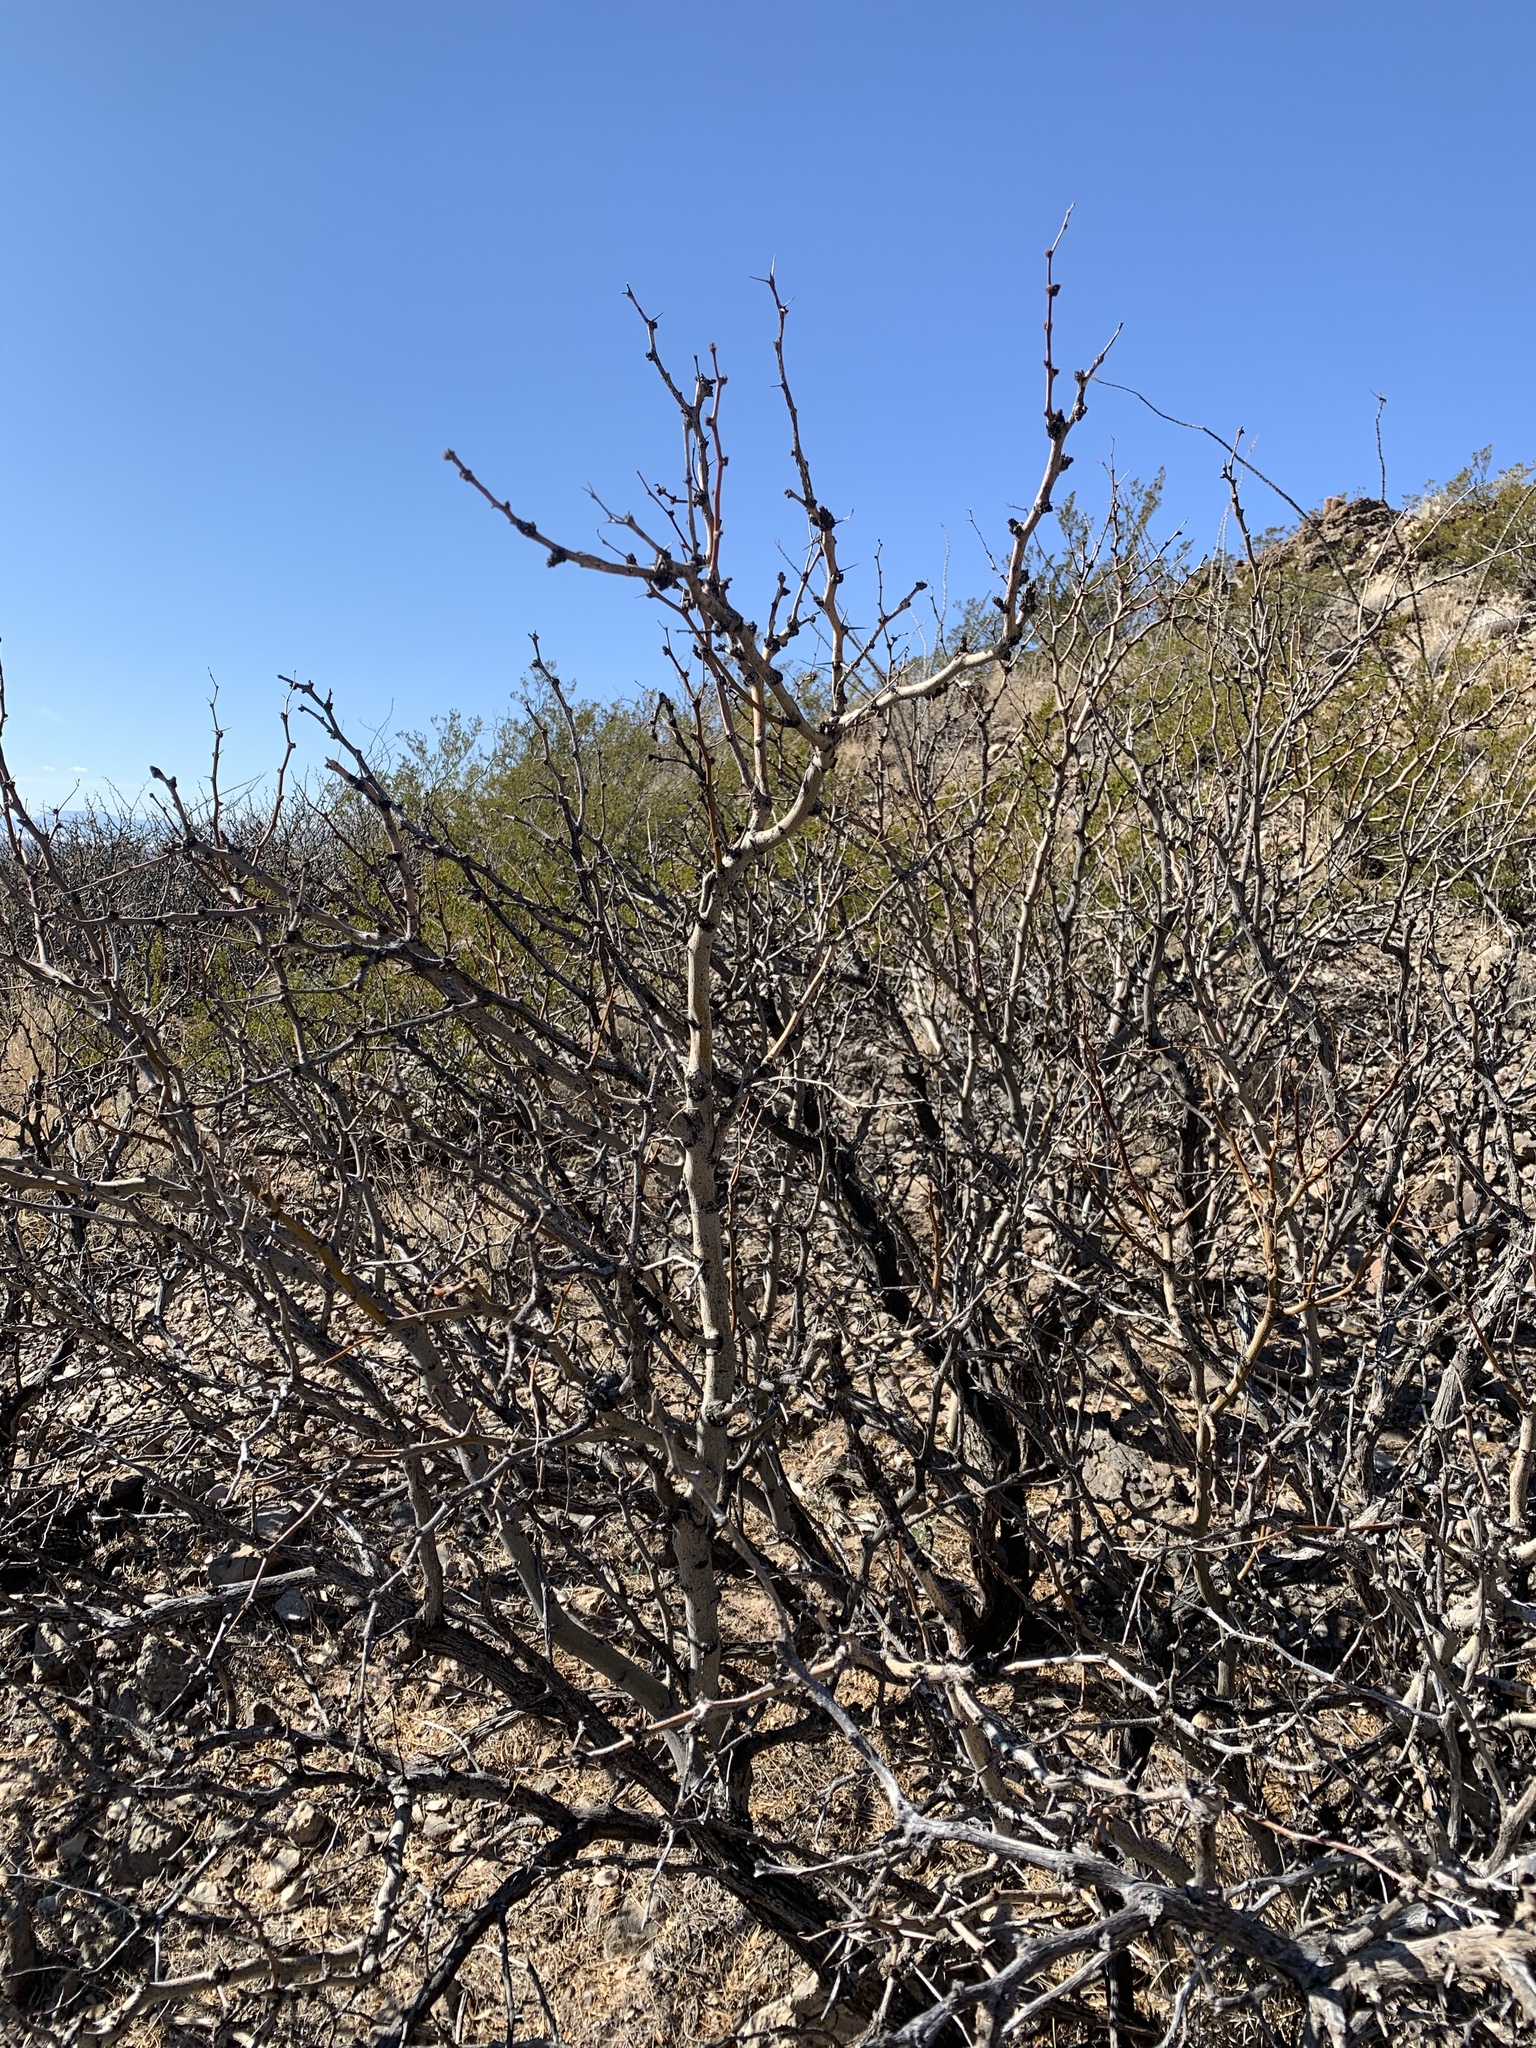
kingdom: Plantae
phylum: Tracheophyta
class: Magnoliopsida
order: Fabales
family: Fabaceae
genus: Prosopis
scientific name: Prosopis glandulosa
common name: Honey mesquite
